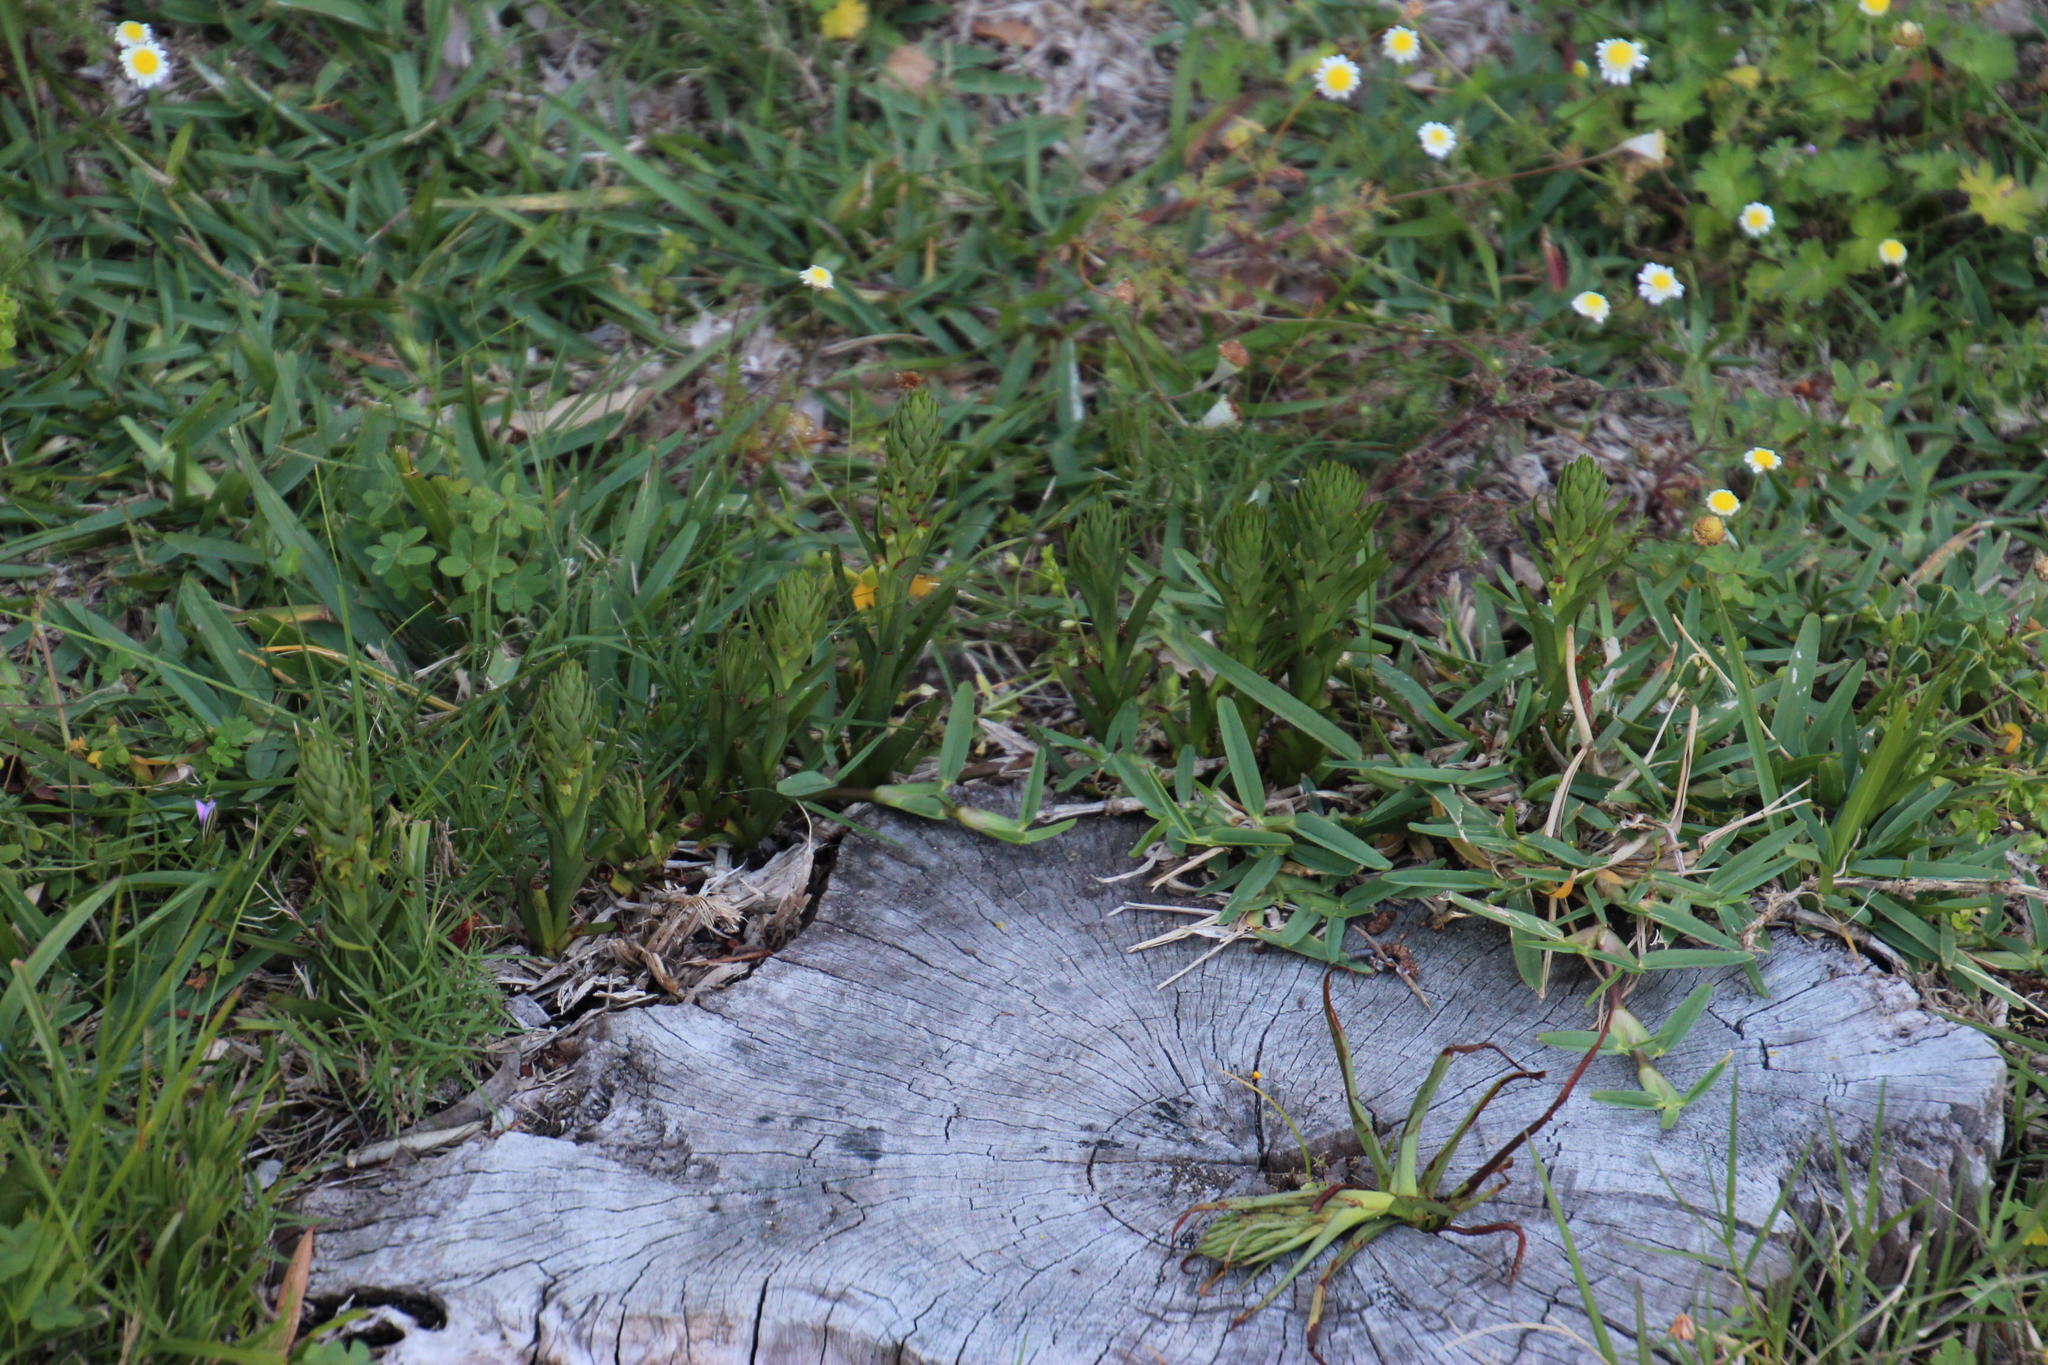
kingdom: Plantae
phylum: Tracheophyta
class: Liliopsida
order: Asparagales
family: Orchidaceae
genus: Disa
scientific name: Disa bracteata
